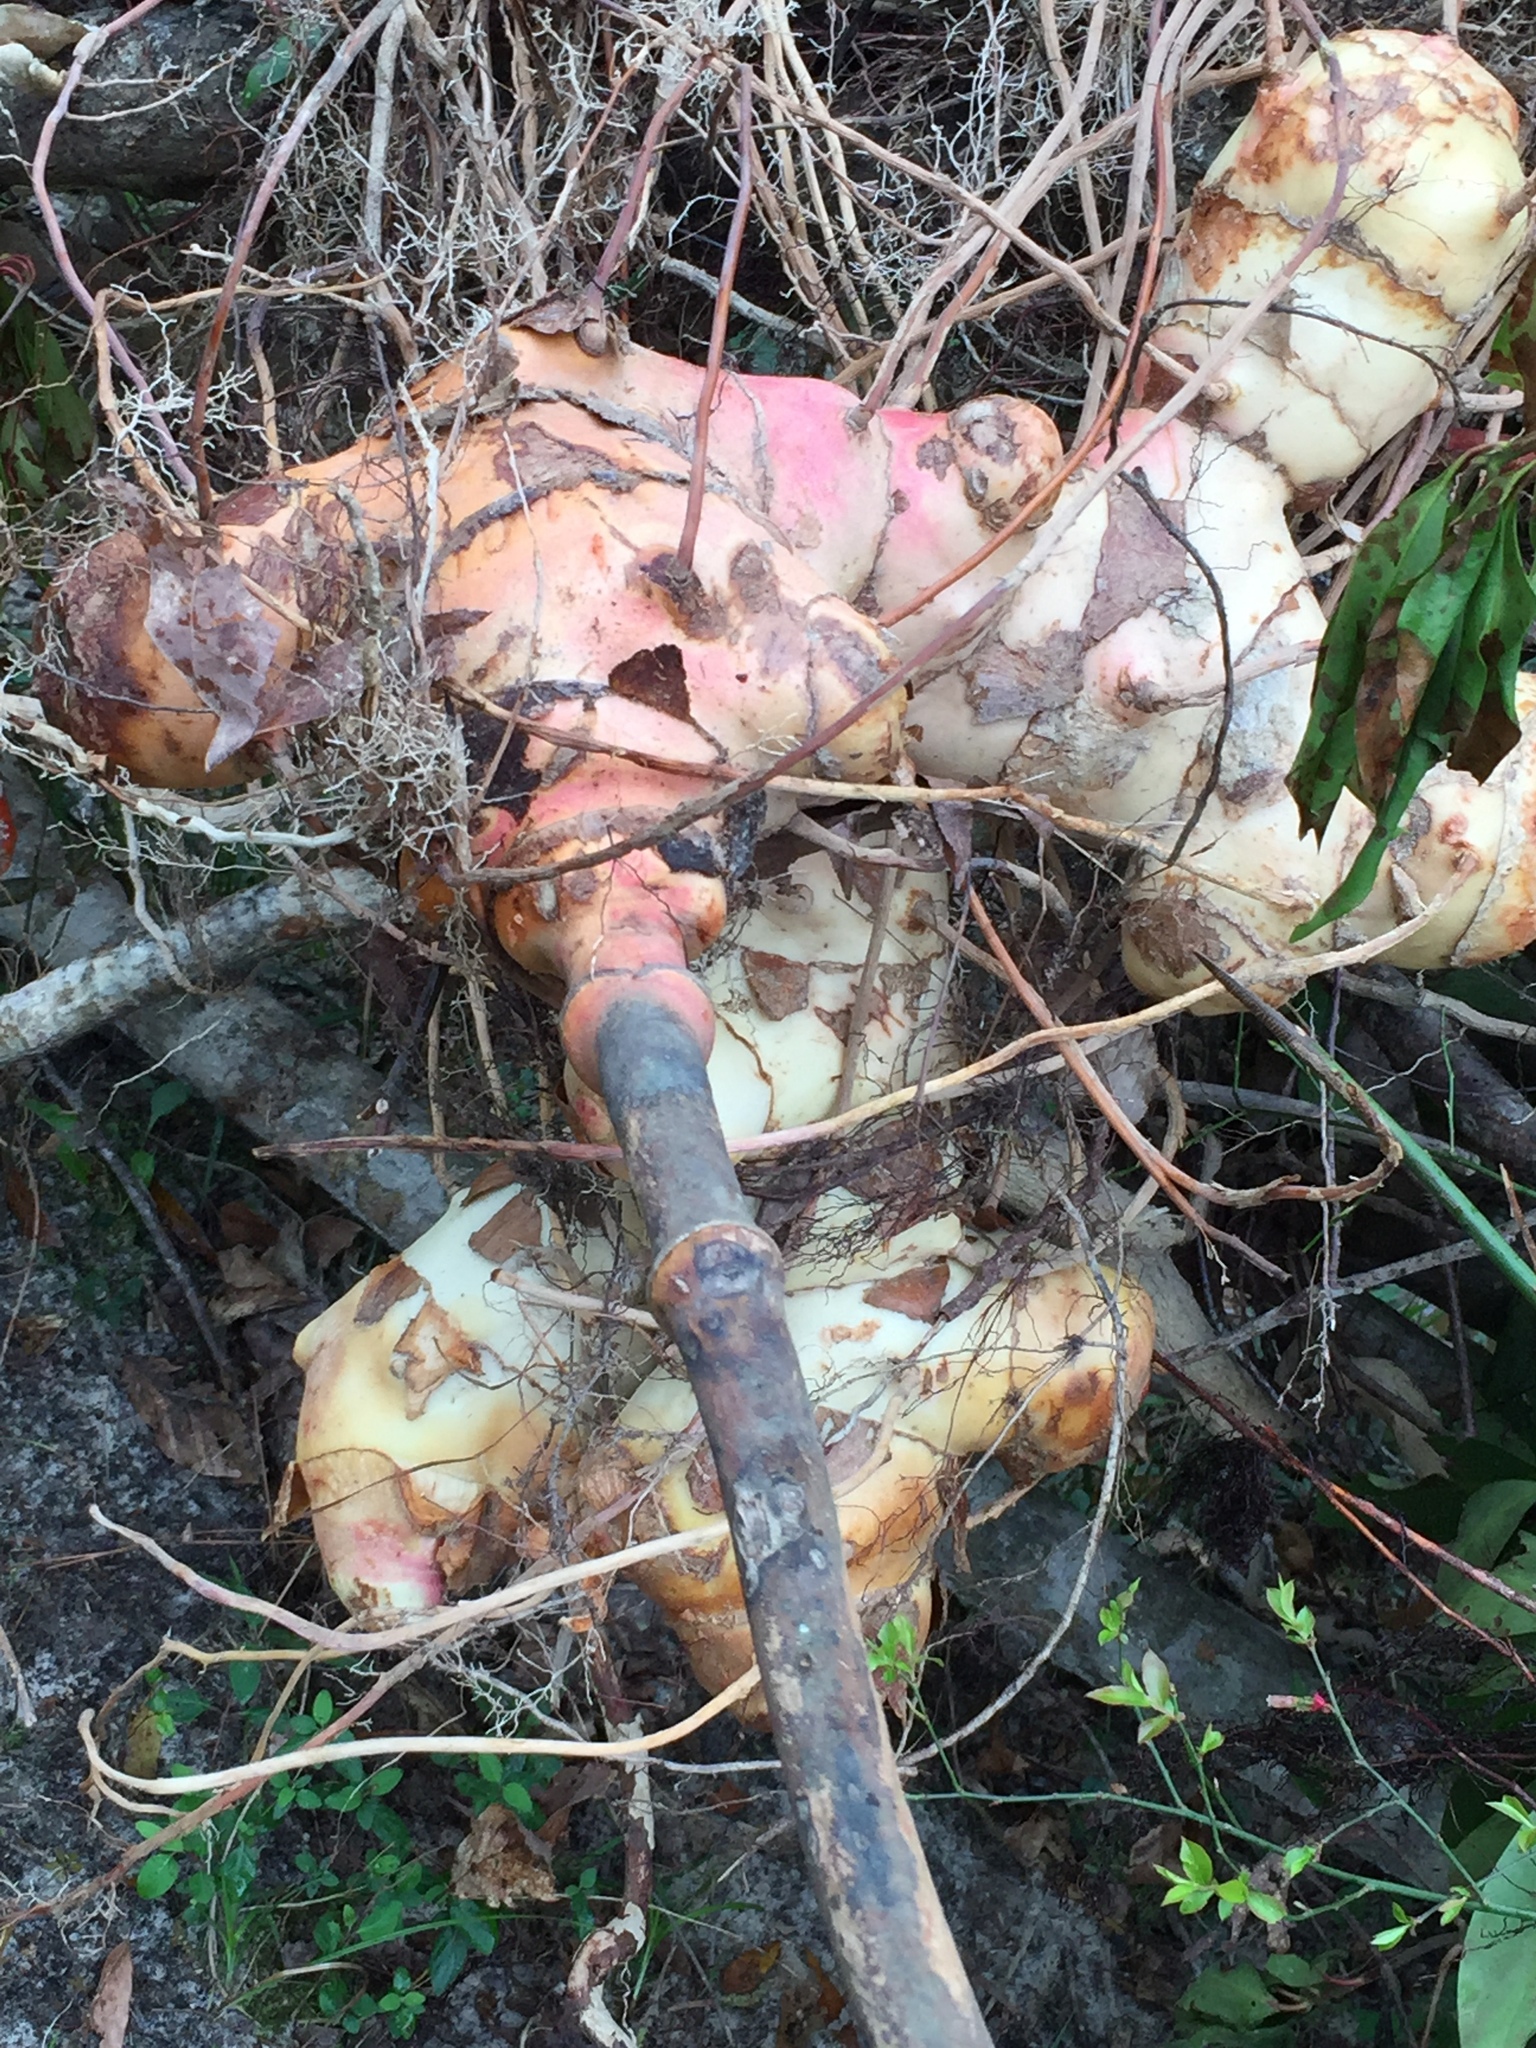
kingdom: Plantae
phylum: Tracheophyta
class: Liliopsida
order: Liliales
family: Smilacaceae
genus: Smilax
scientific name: Smilax maritima
